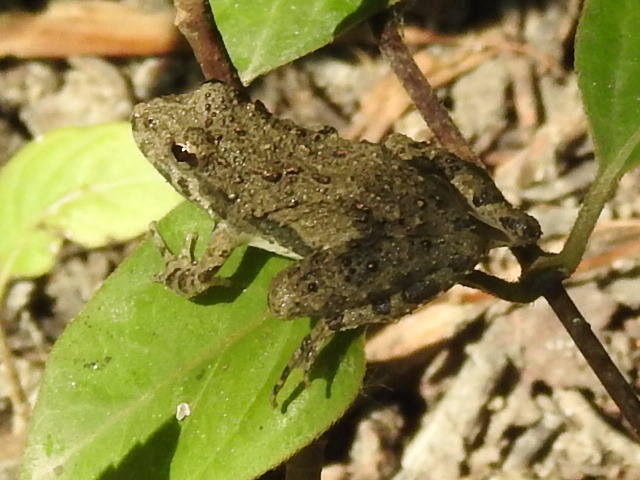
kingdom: Animalia
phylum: Chordata
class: Amphibia
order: Anura
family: Hylidae
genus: Acris
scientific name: Acris blanchardi
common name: Blanchard's cricket frog
